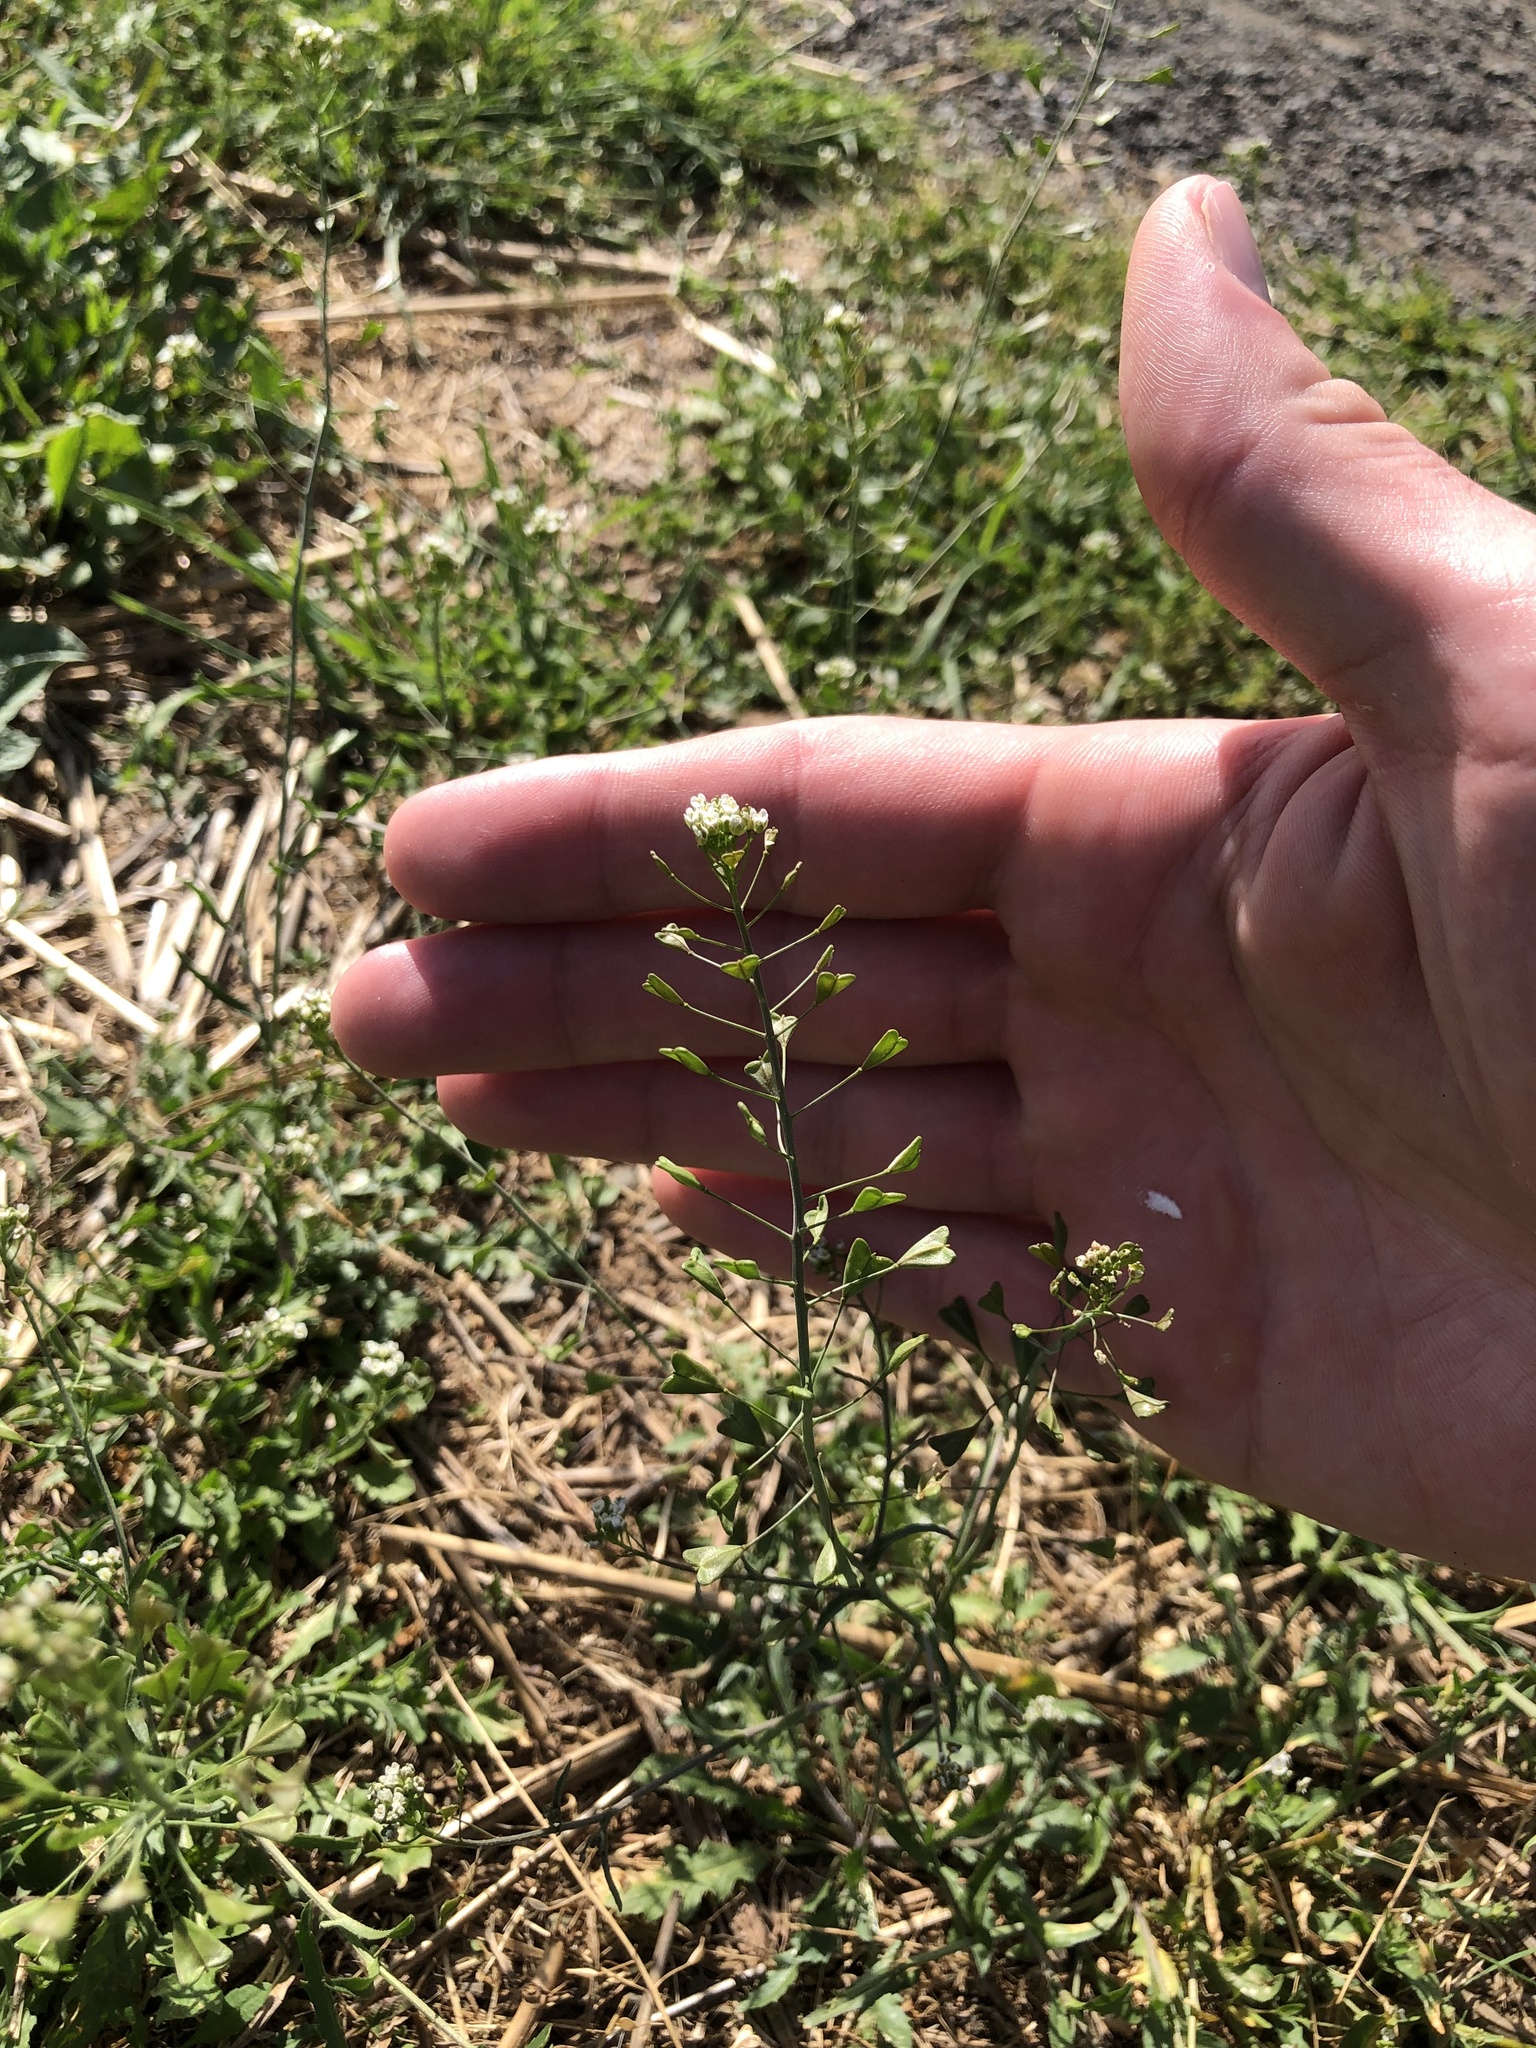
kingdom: Plantae
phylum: Tracheophyta
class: Magnoliopsida
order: Brassicales
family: Brassicaceae
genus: Capsella
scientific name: Capsella bursa-pastoris
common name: Shepherd's purse
